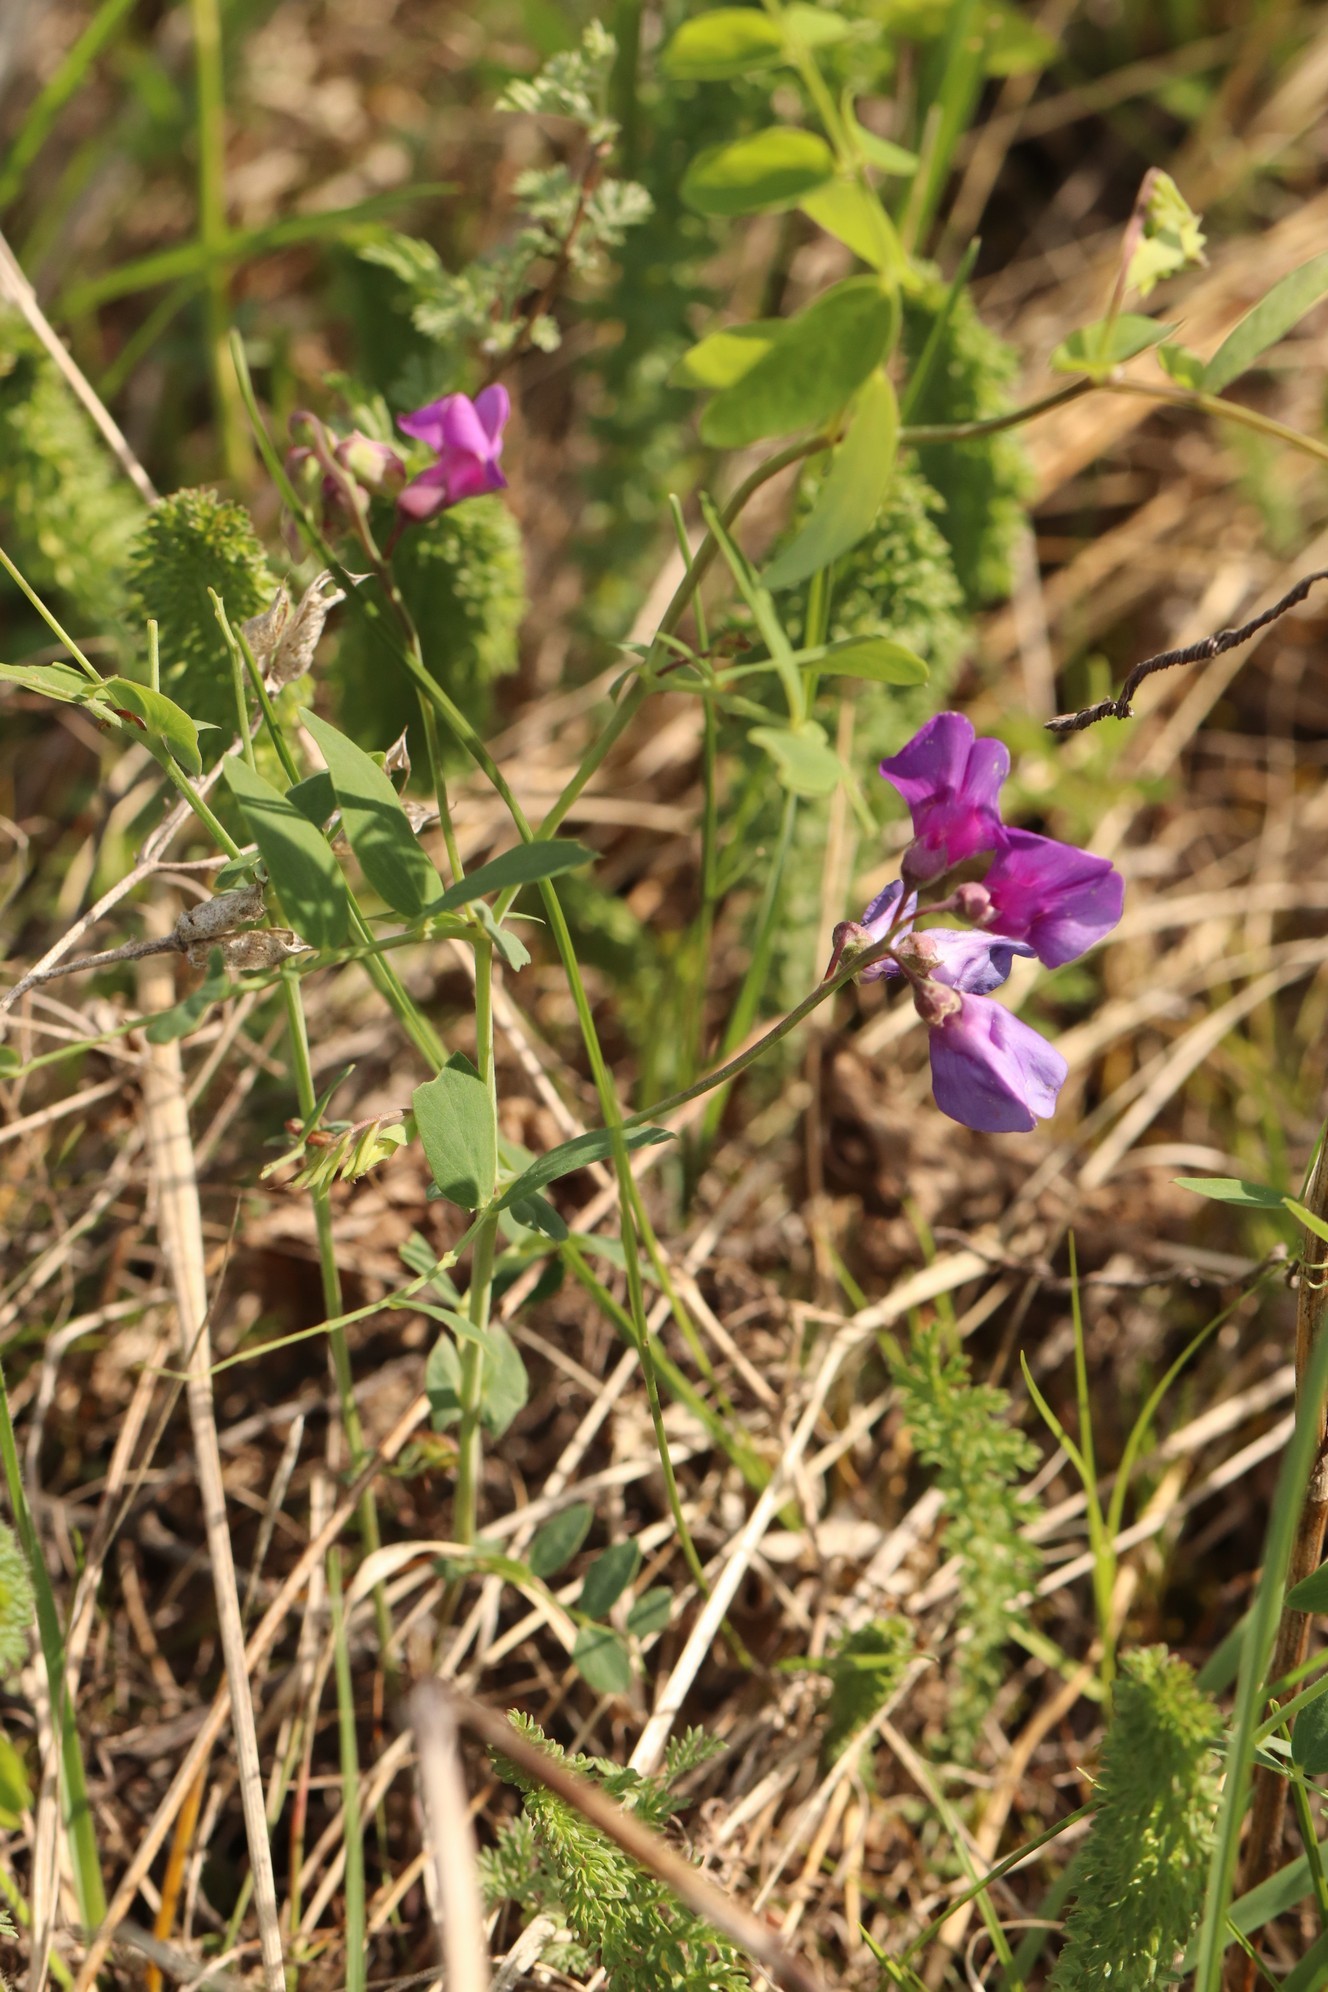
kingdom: Plantae
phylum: Tracheophyta
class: Magnoliopsida
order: Fabales
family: Fabaceae
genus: Lathyrus
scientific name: Lathyrus humilis
